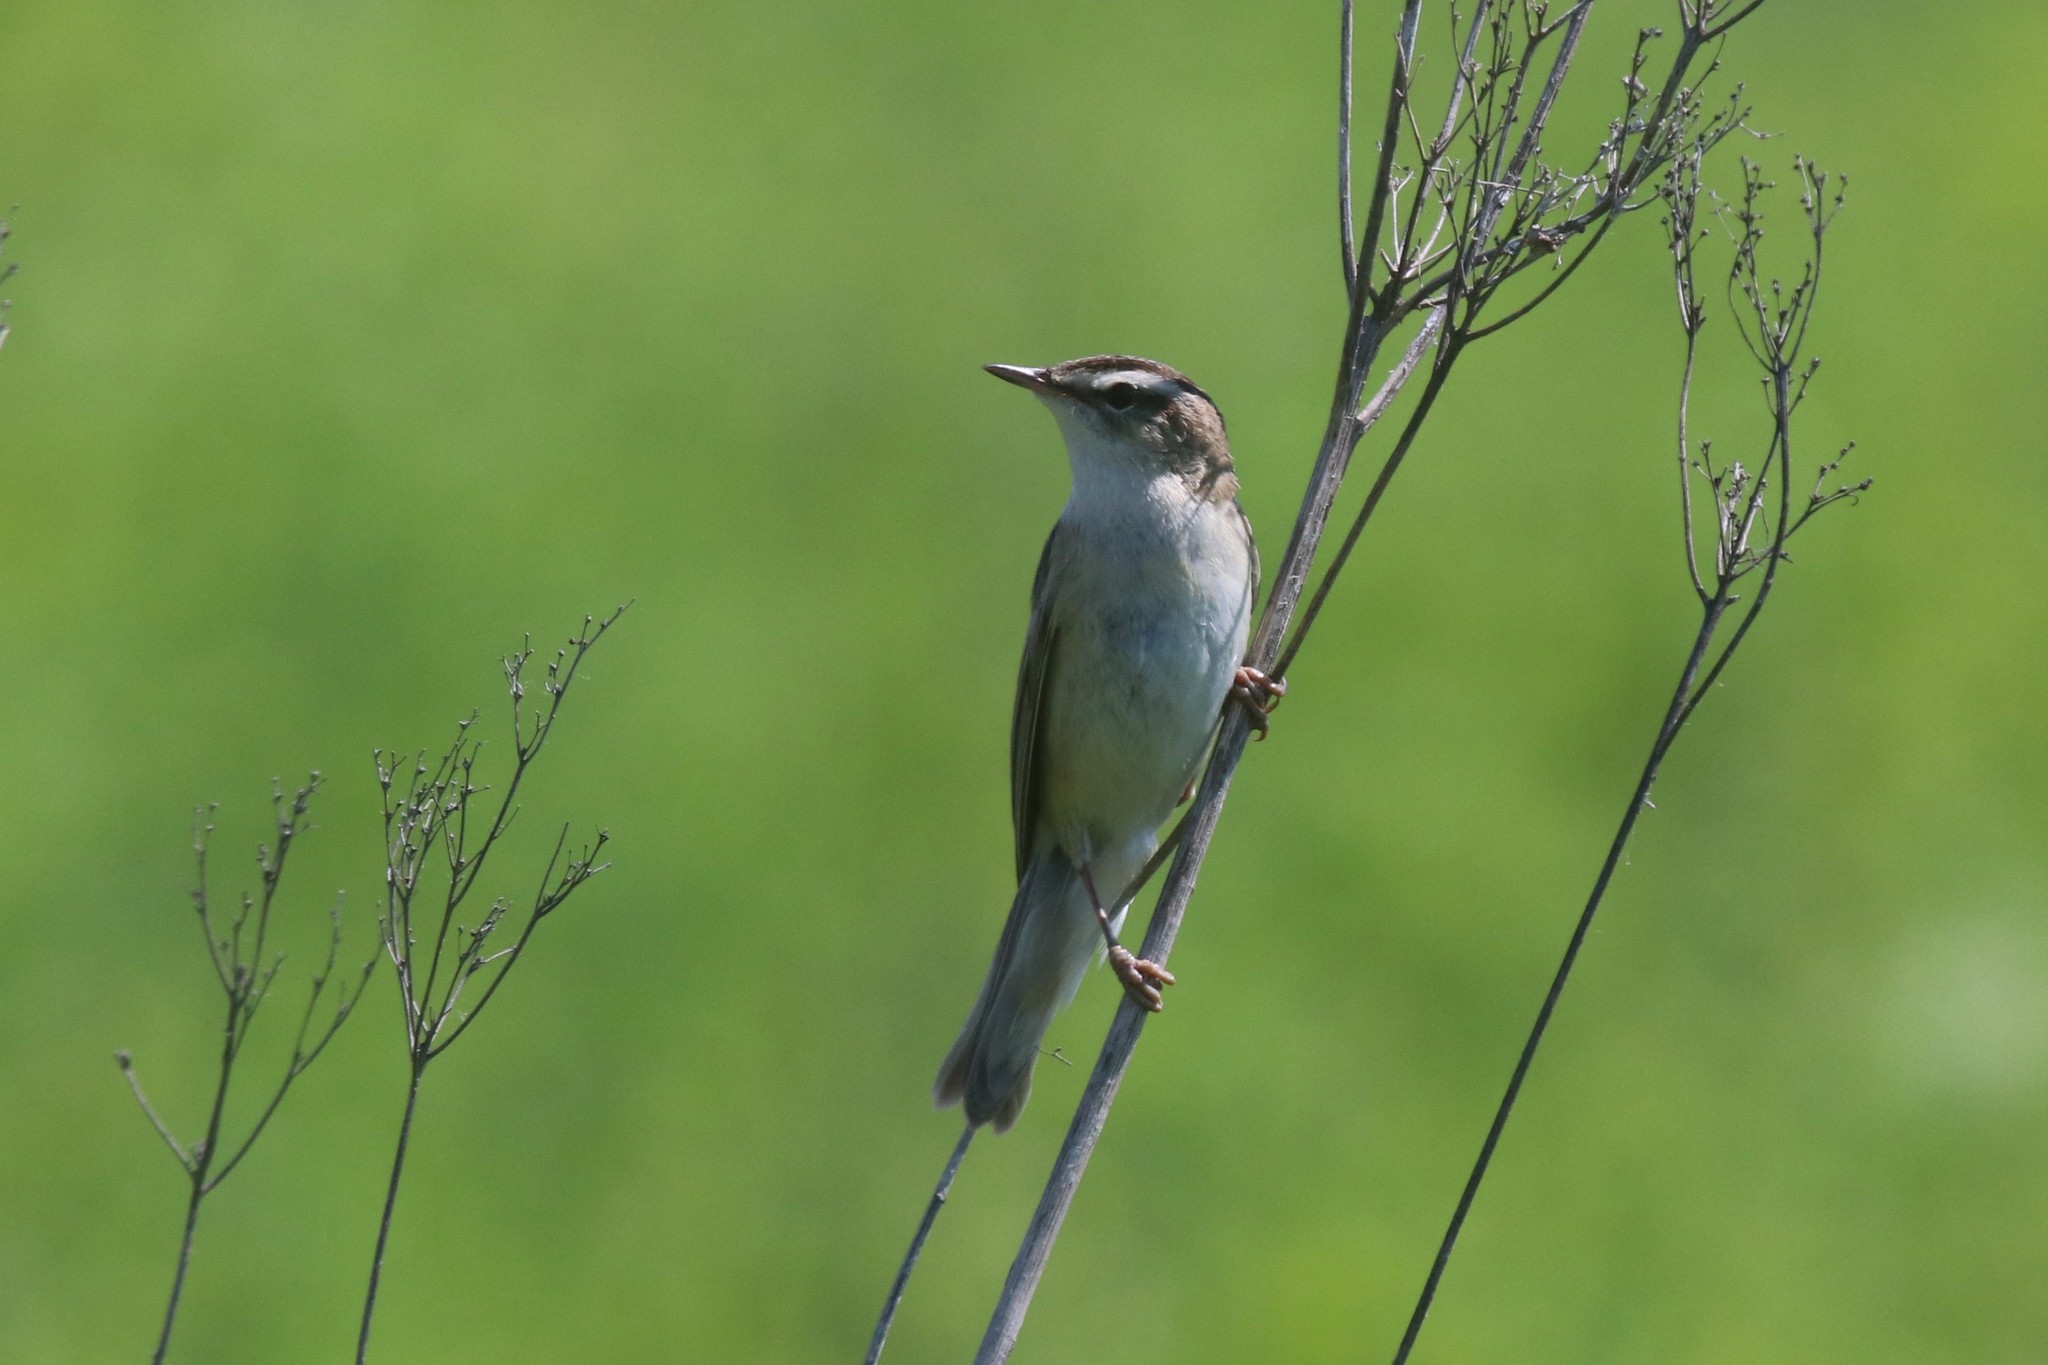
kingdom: Animalia
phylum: Chordata
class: Aves
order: Passeriformes
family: Acrocephalidae
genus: Acrocephalus
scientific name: Acrocephalus schoenobaenus
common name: Sedge warbler
